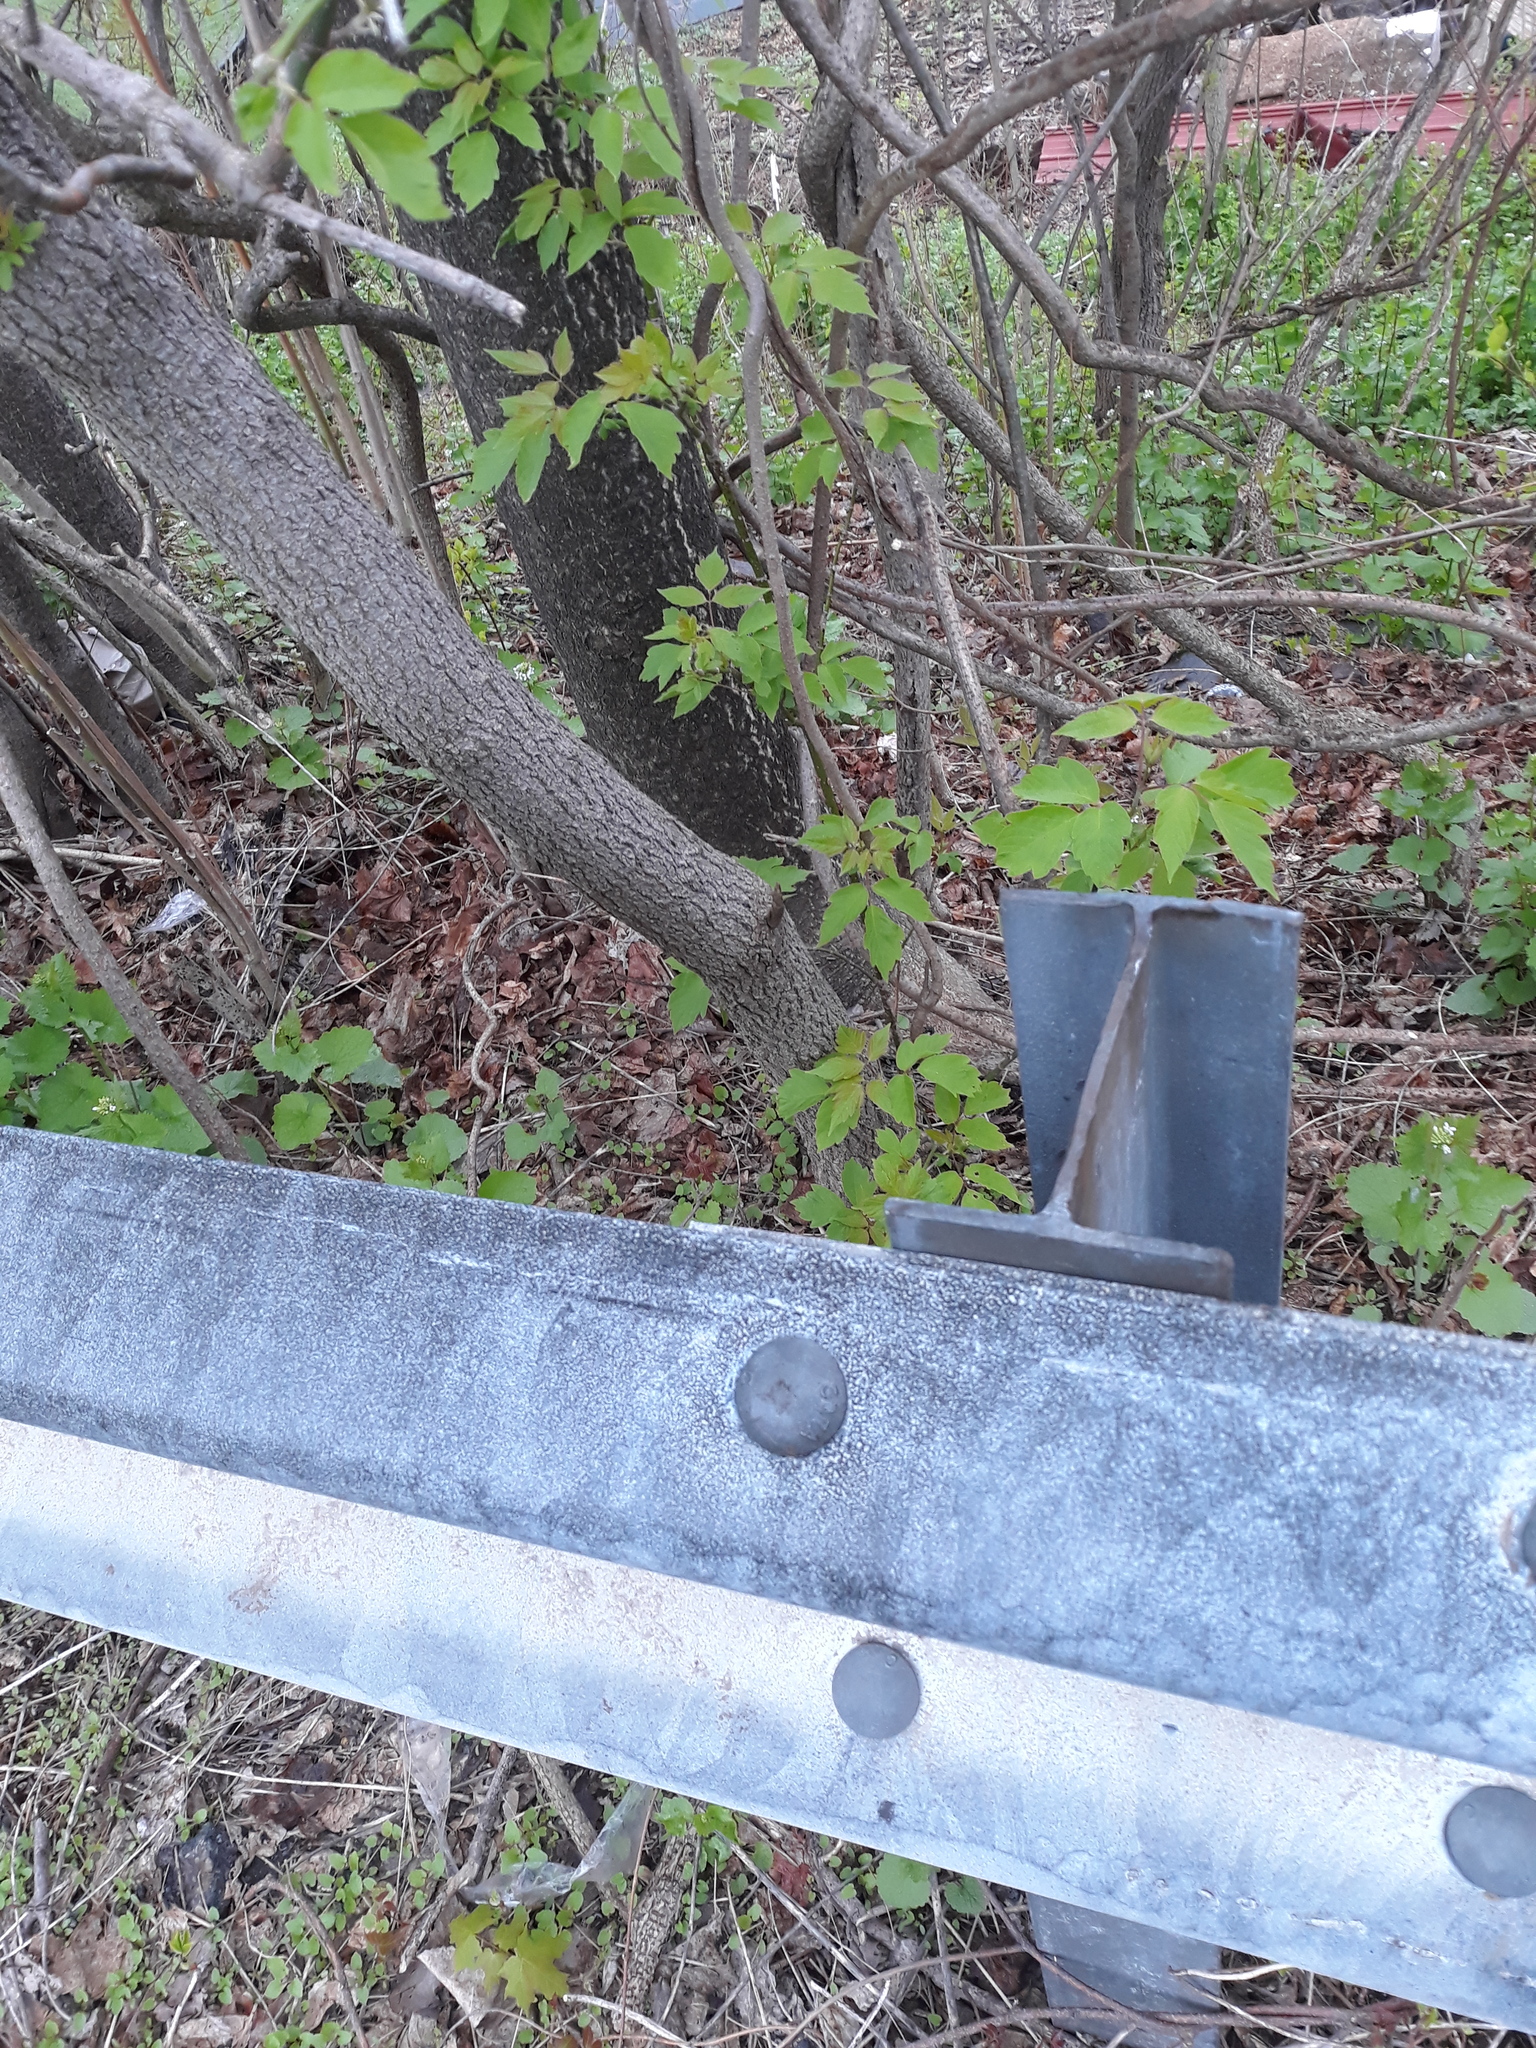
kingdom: Plantae
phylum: Tracheophyta
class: Magnoliopsida
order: Sapindales
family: Sapindaceae
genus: Acer
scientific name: Acer negundo
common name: Ashleaf maple
